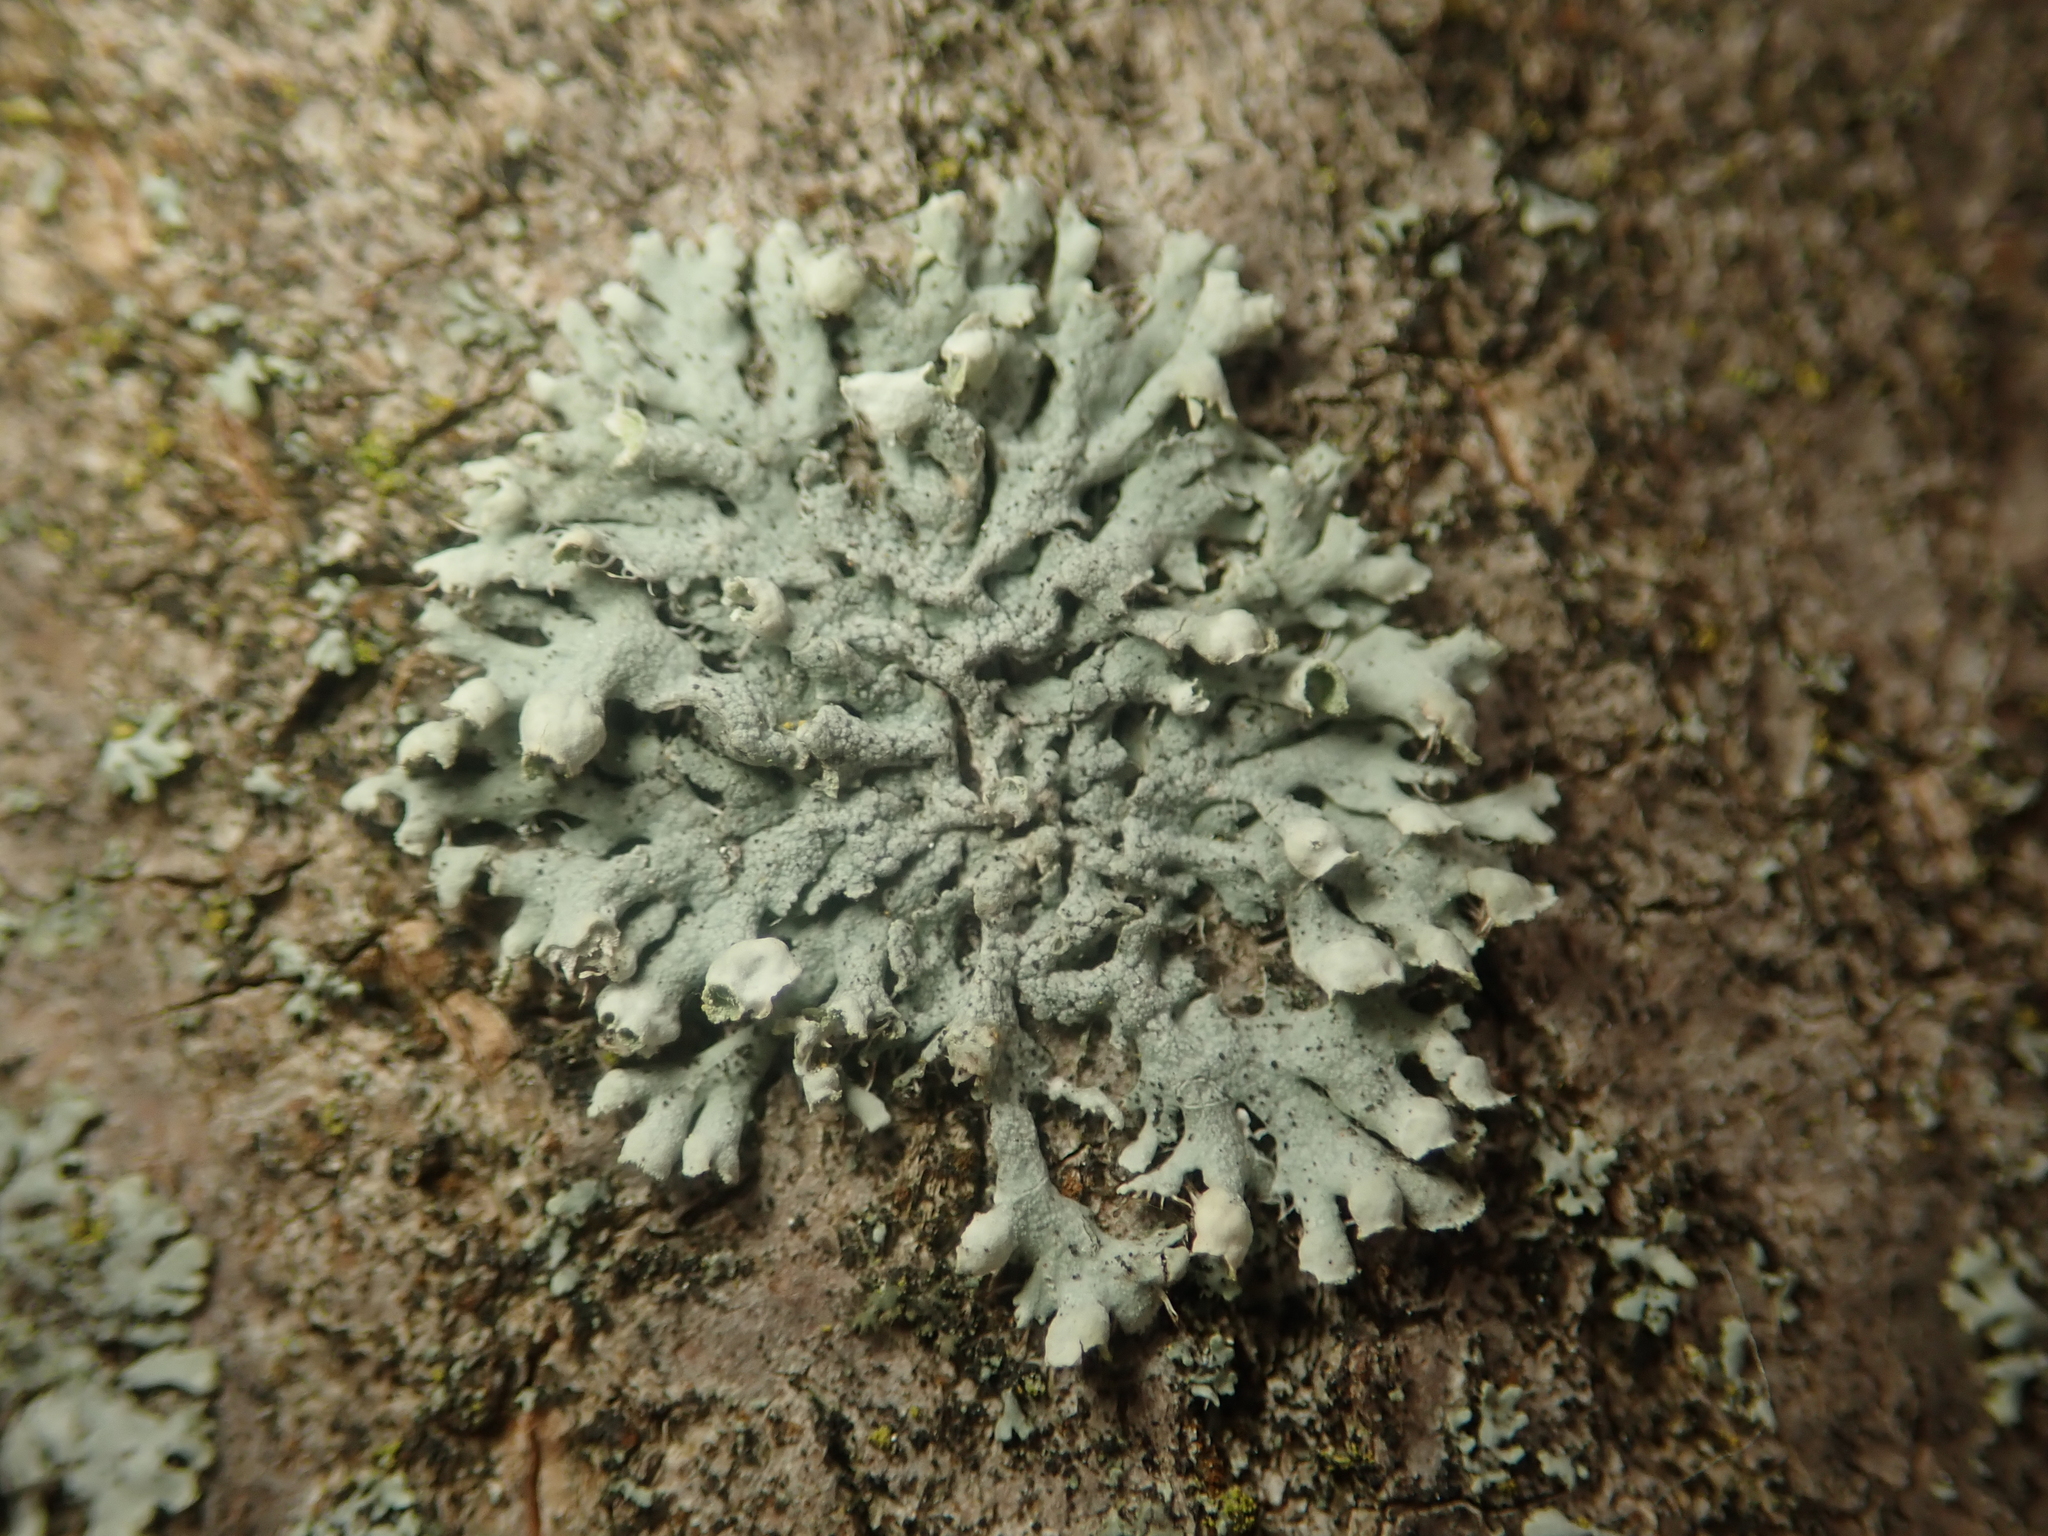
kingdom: Fungi
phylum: Ascomycota
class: Lecanoromycetes
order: Caliciales
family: Physciaceae
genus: Physcia
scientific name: Physcia adscendens
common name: Hooded rosette lichen
